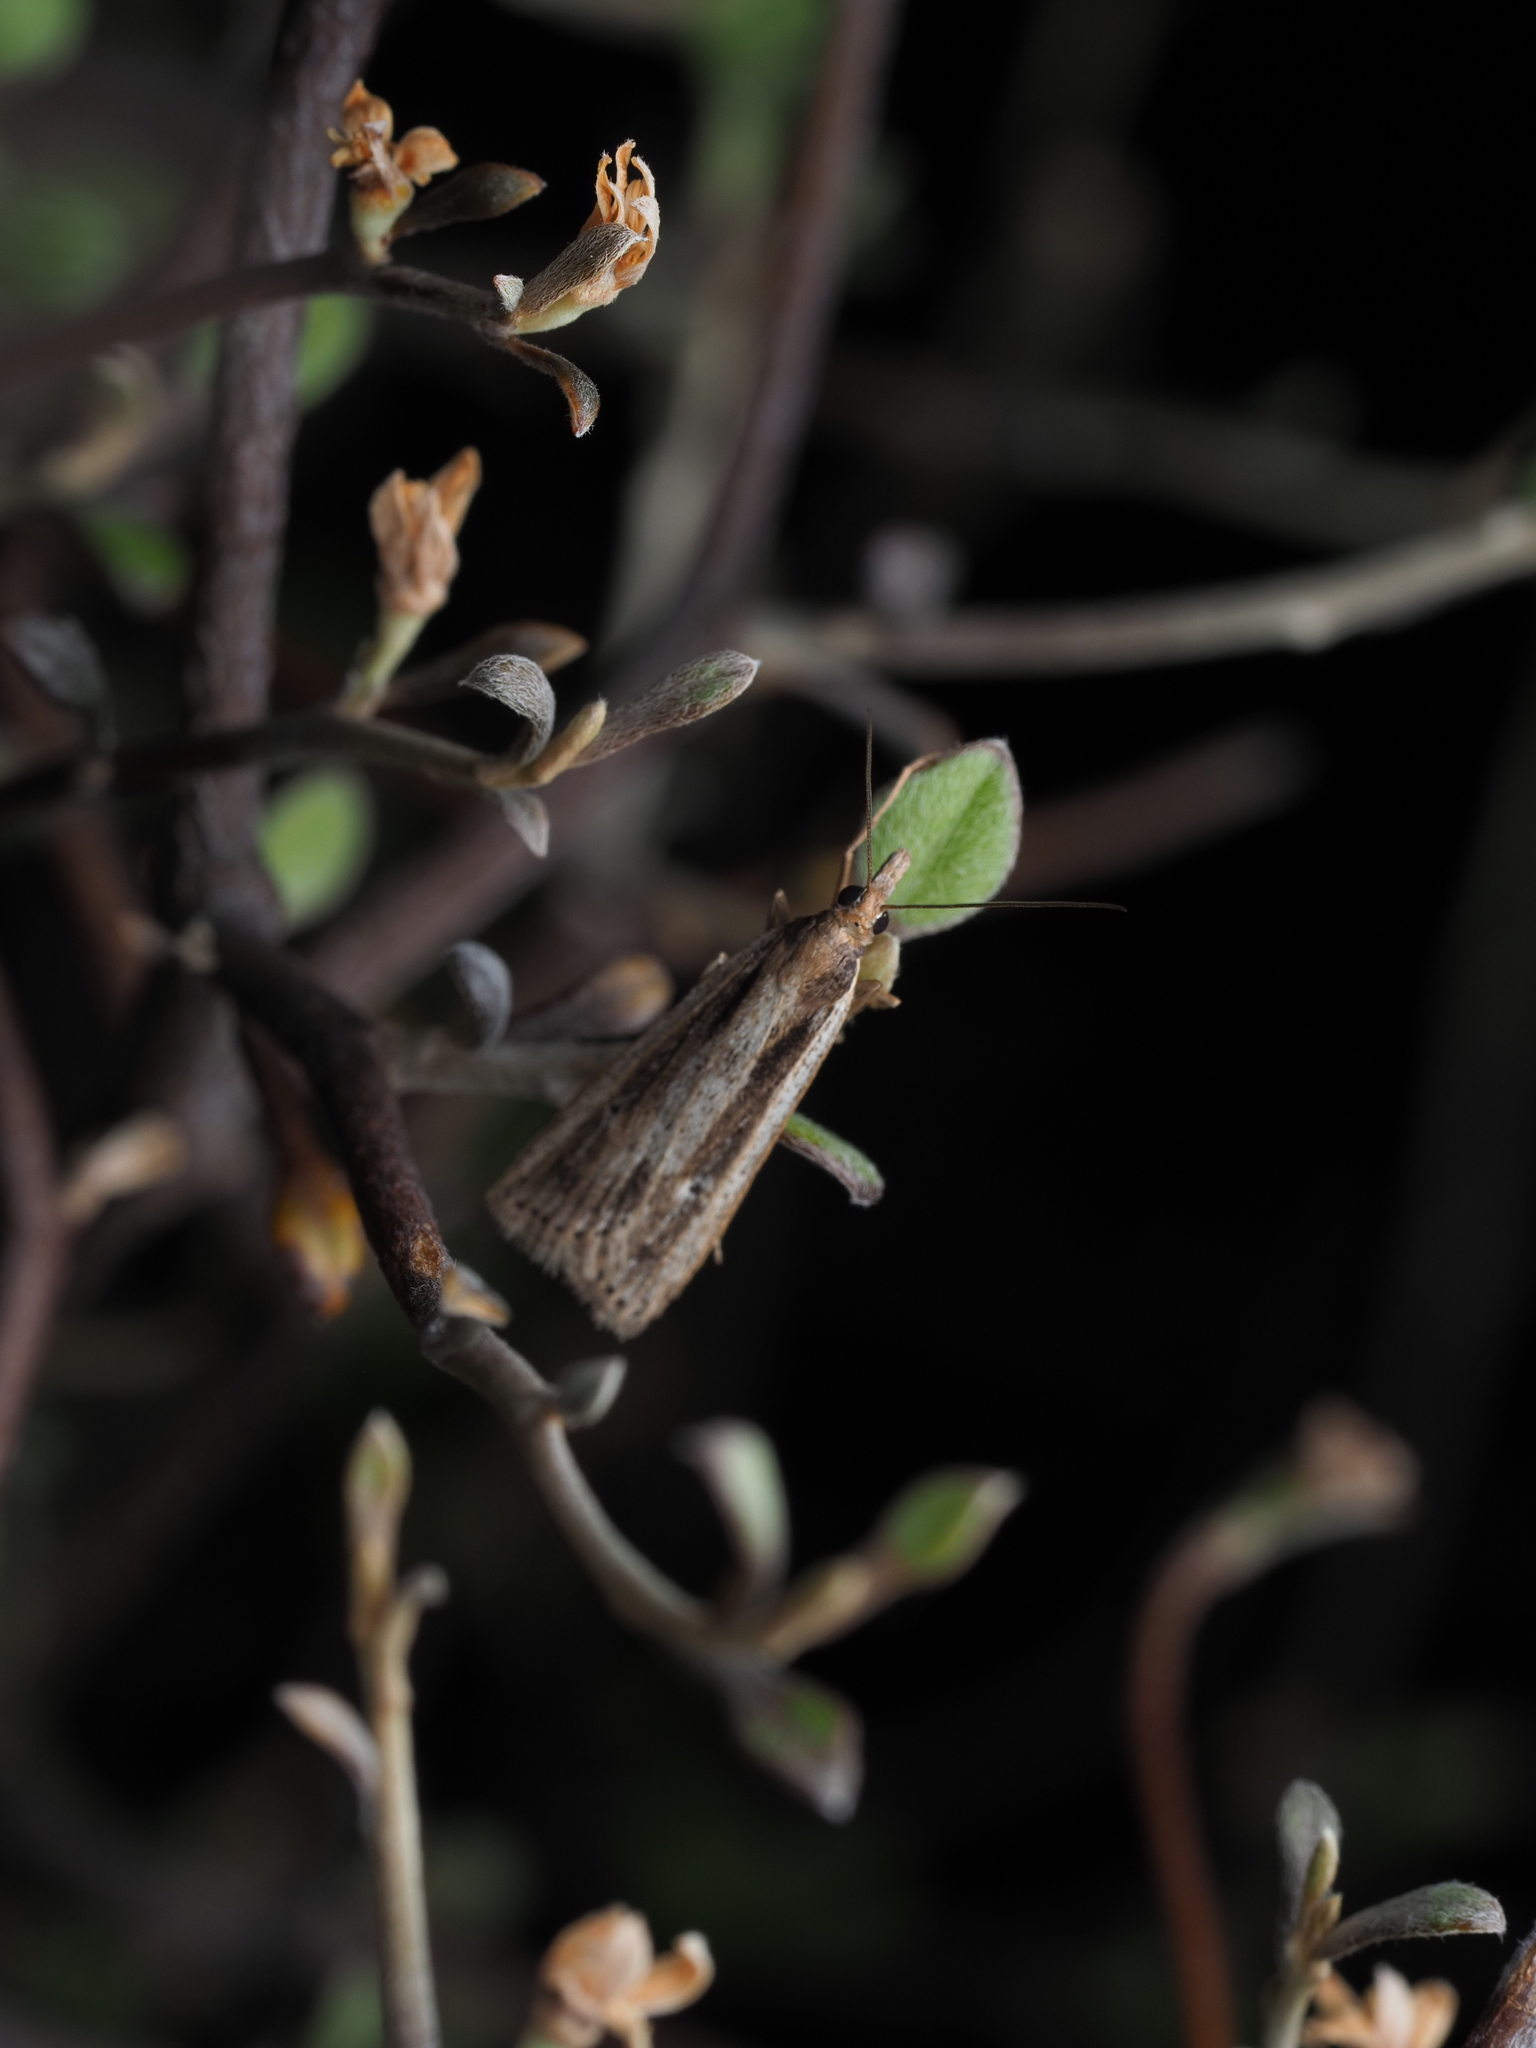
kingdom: Animalia
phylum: Arthropoda
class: Insecta
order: Lepidoptera
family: Crambidae
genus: Eudonia
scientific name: Eudonia sabulosella
